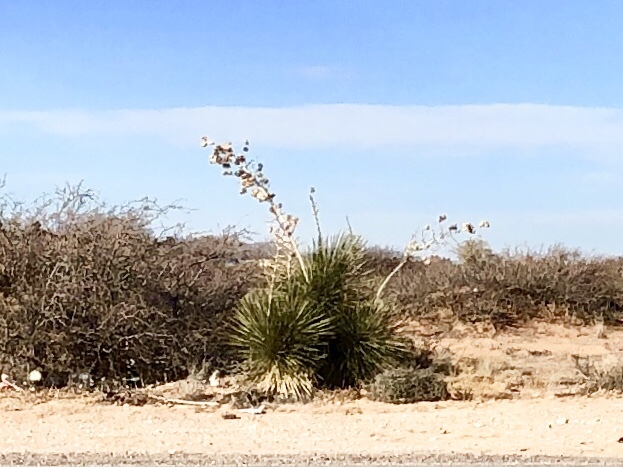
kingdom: Plantae
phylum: Tracheophyta
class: Liliopsida
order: Asparagales
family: Asparagaceae
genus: Yucca
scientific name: Yucca elata
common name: Palmella
